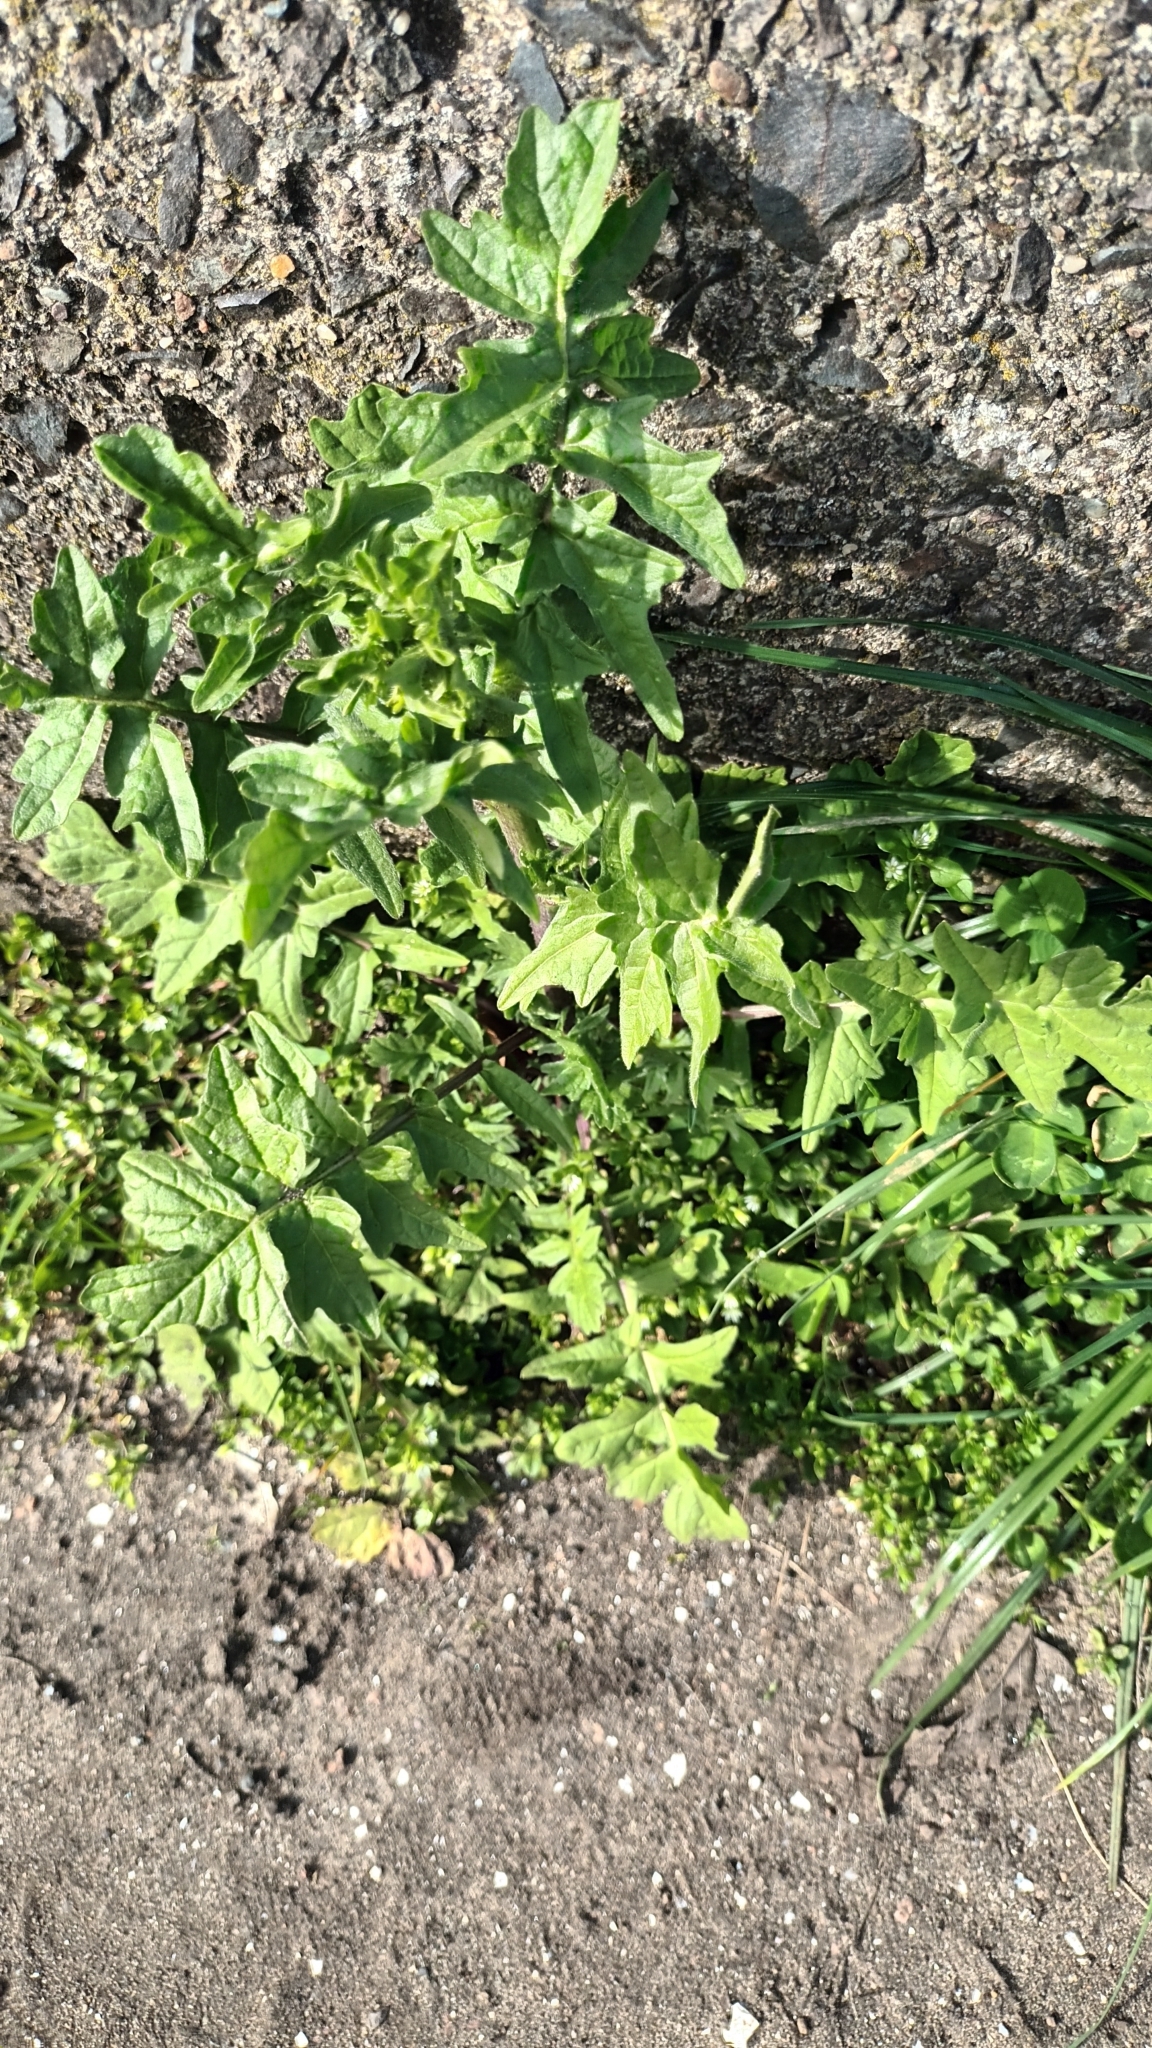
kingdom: Plantae
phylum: Tracheophyta
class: Magnoliopsida
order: Brassicales
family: Brassicaceae
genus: Sisymbrium
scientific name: Sisymbrium officinale
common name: Hedge mustard
